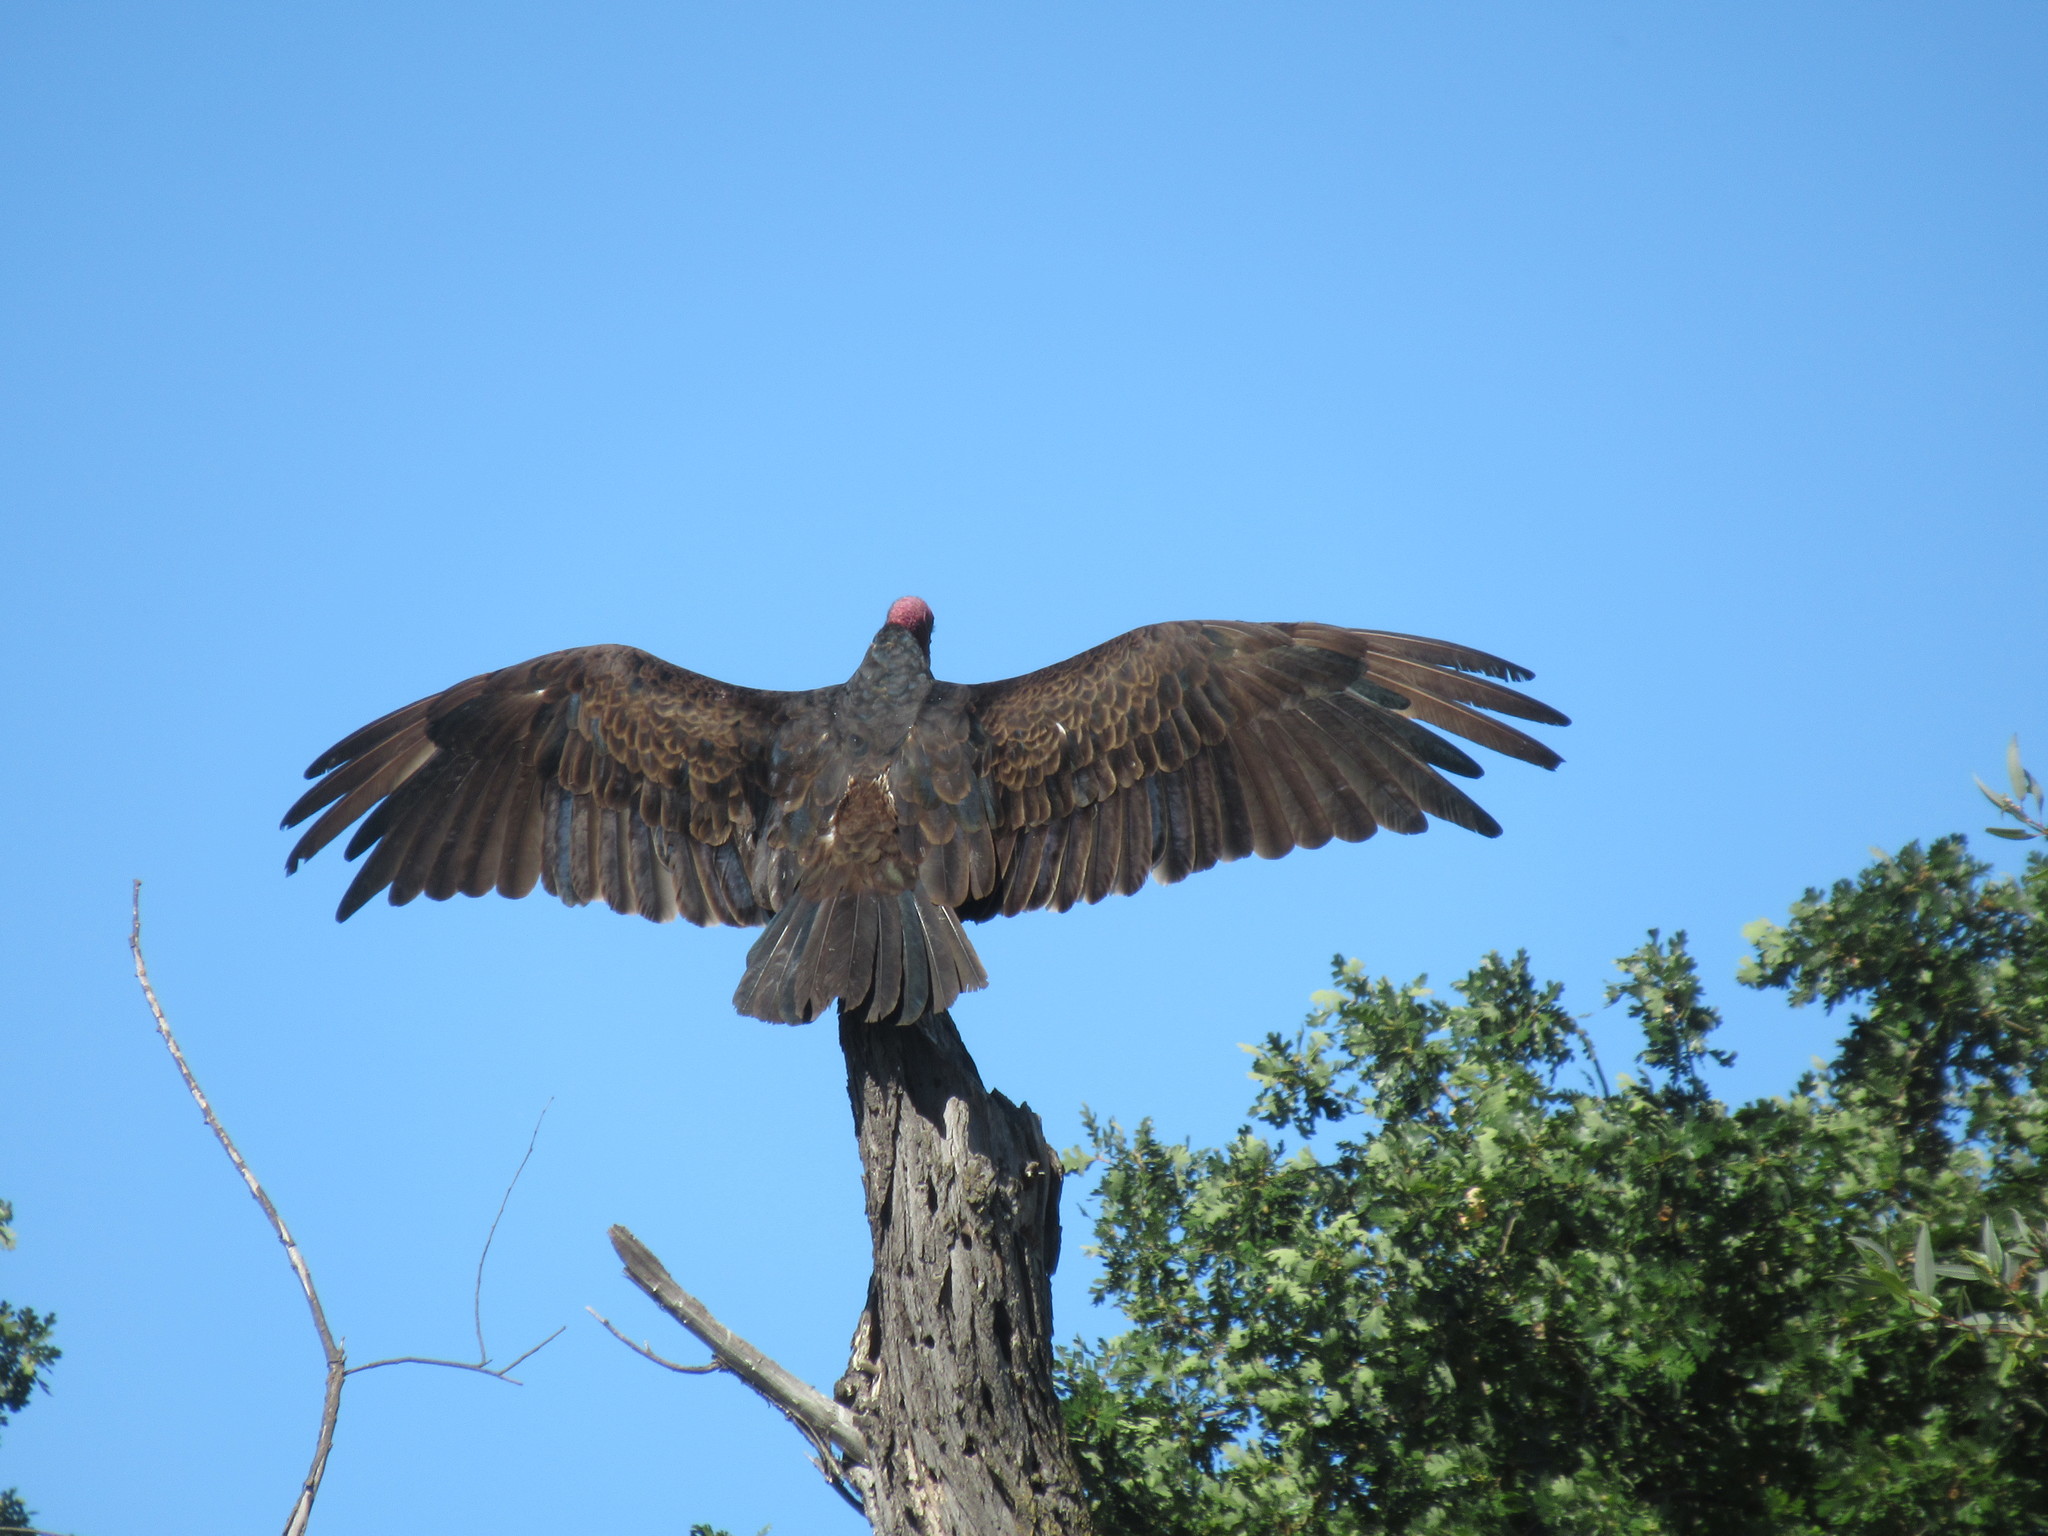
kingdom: Animalia
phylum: Chordata
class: Aves
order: Accipitriformes
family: Cathartidae
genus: Cathartes
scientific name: Cathartes aura
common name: Turkey vulture
